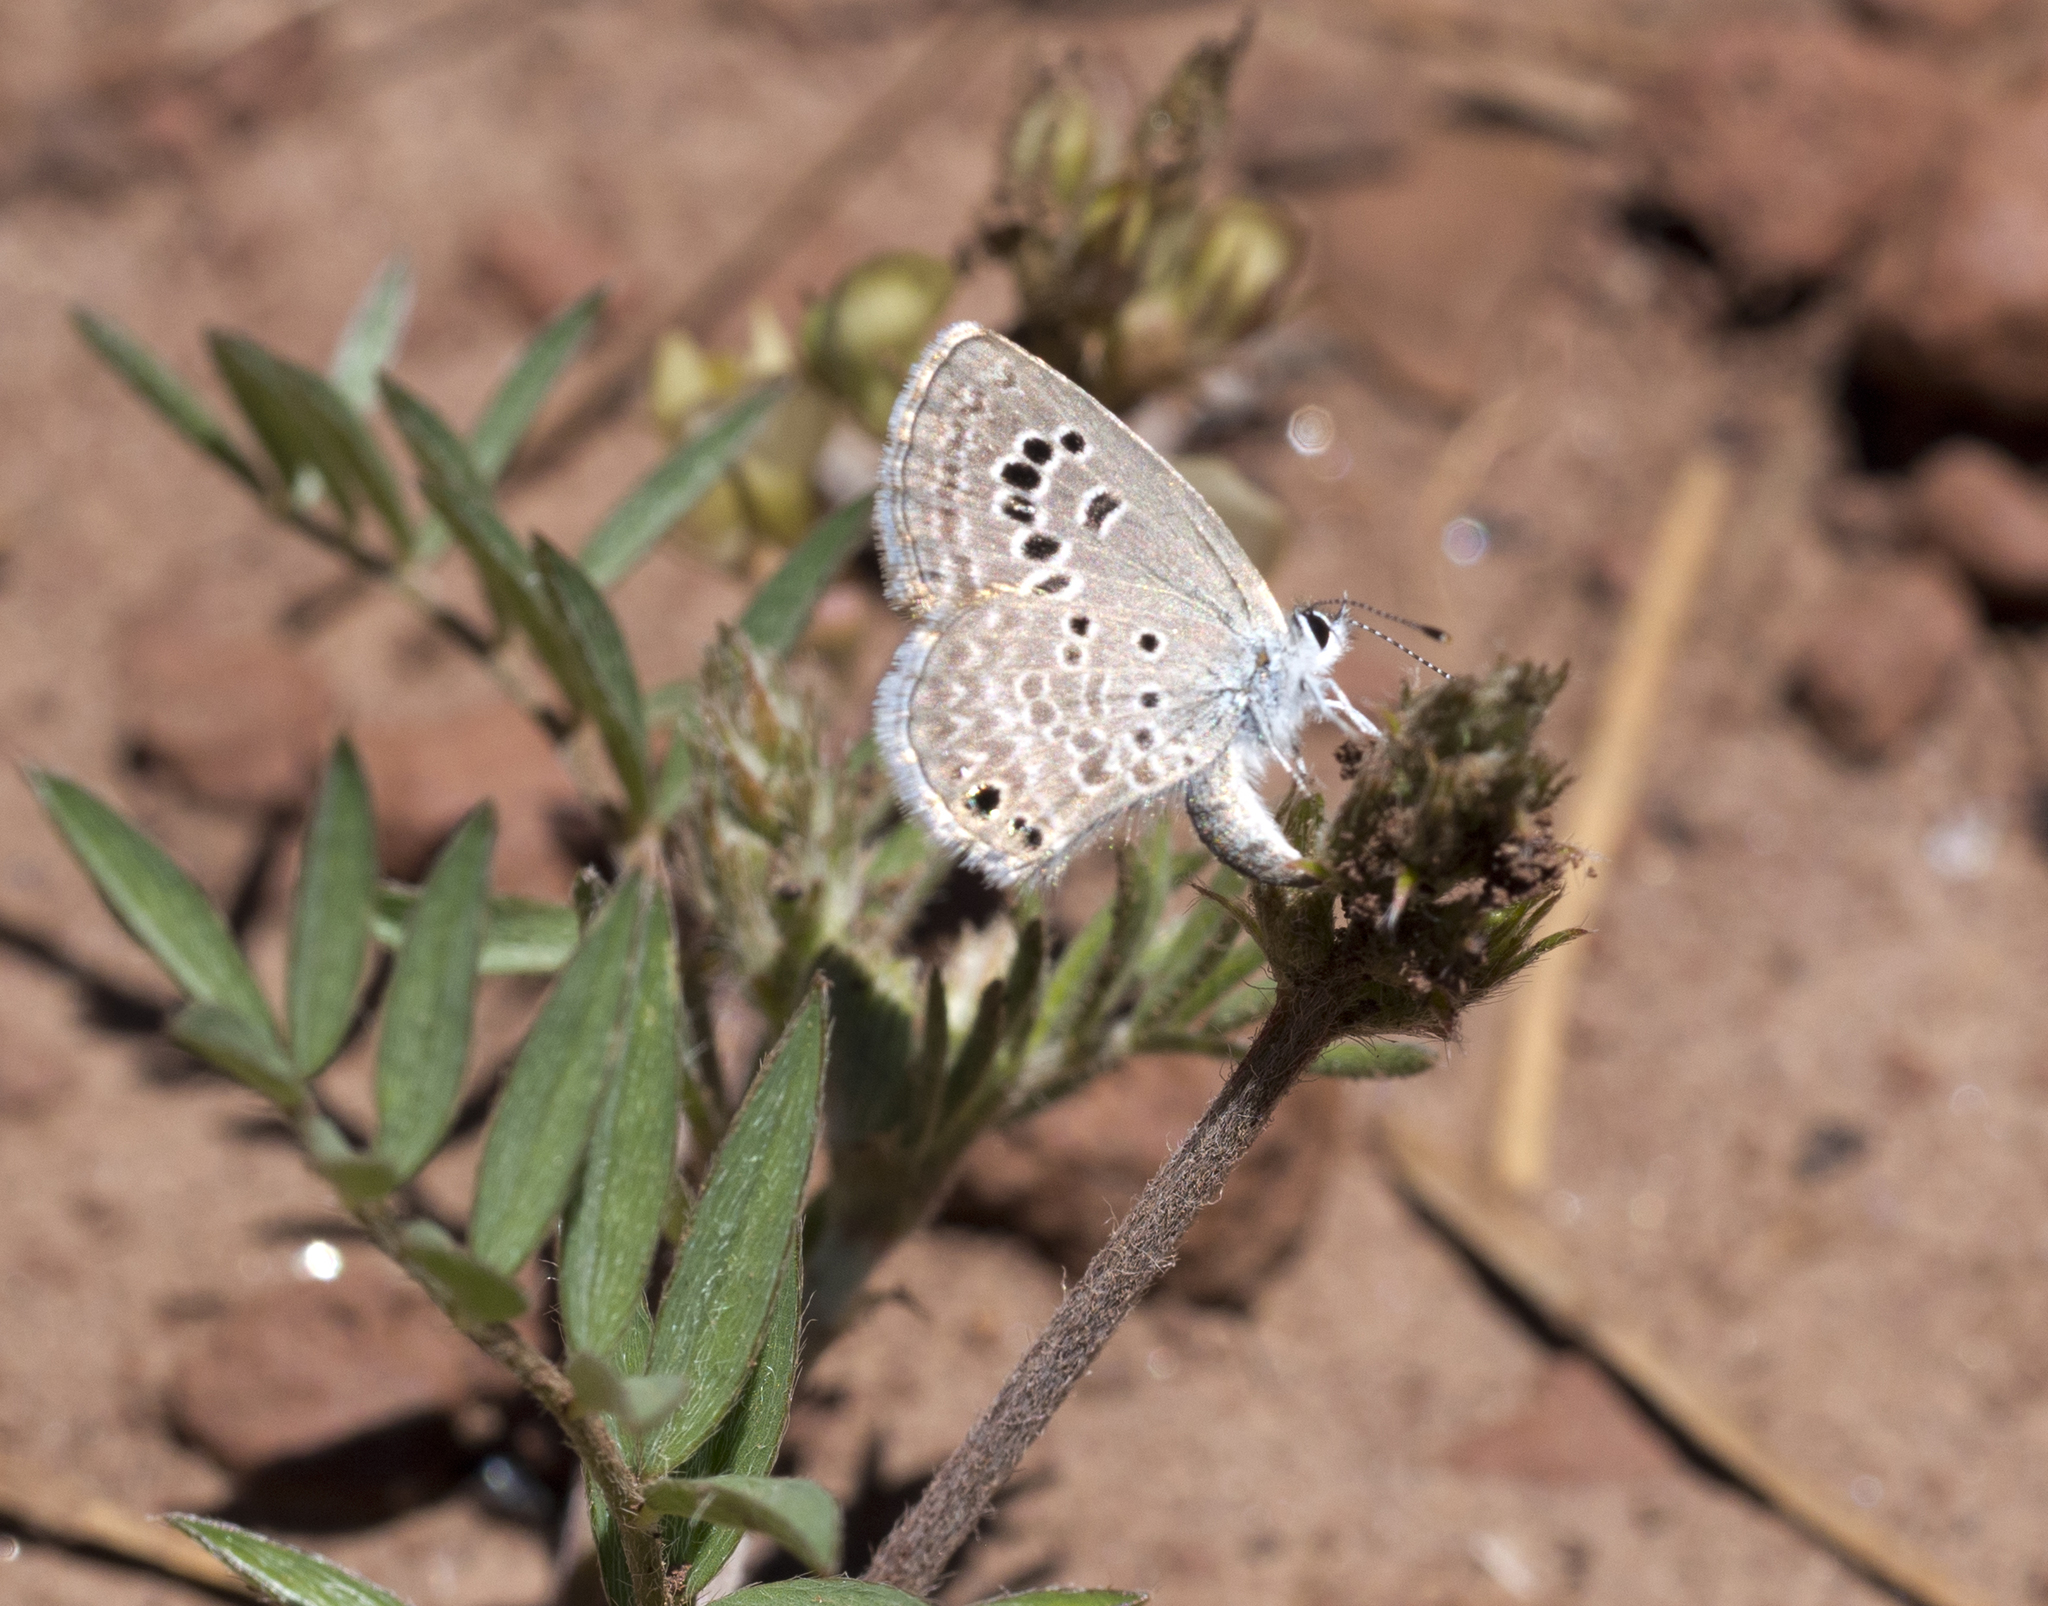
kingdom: Animalia
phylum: Arthropoda
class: Insecta
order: Lepidoptera
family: Lycaenidae
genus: Echinargus
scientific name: Echinargus isola
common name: Reakirt's blue
